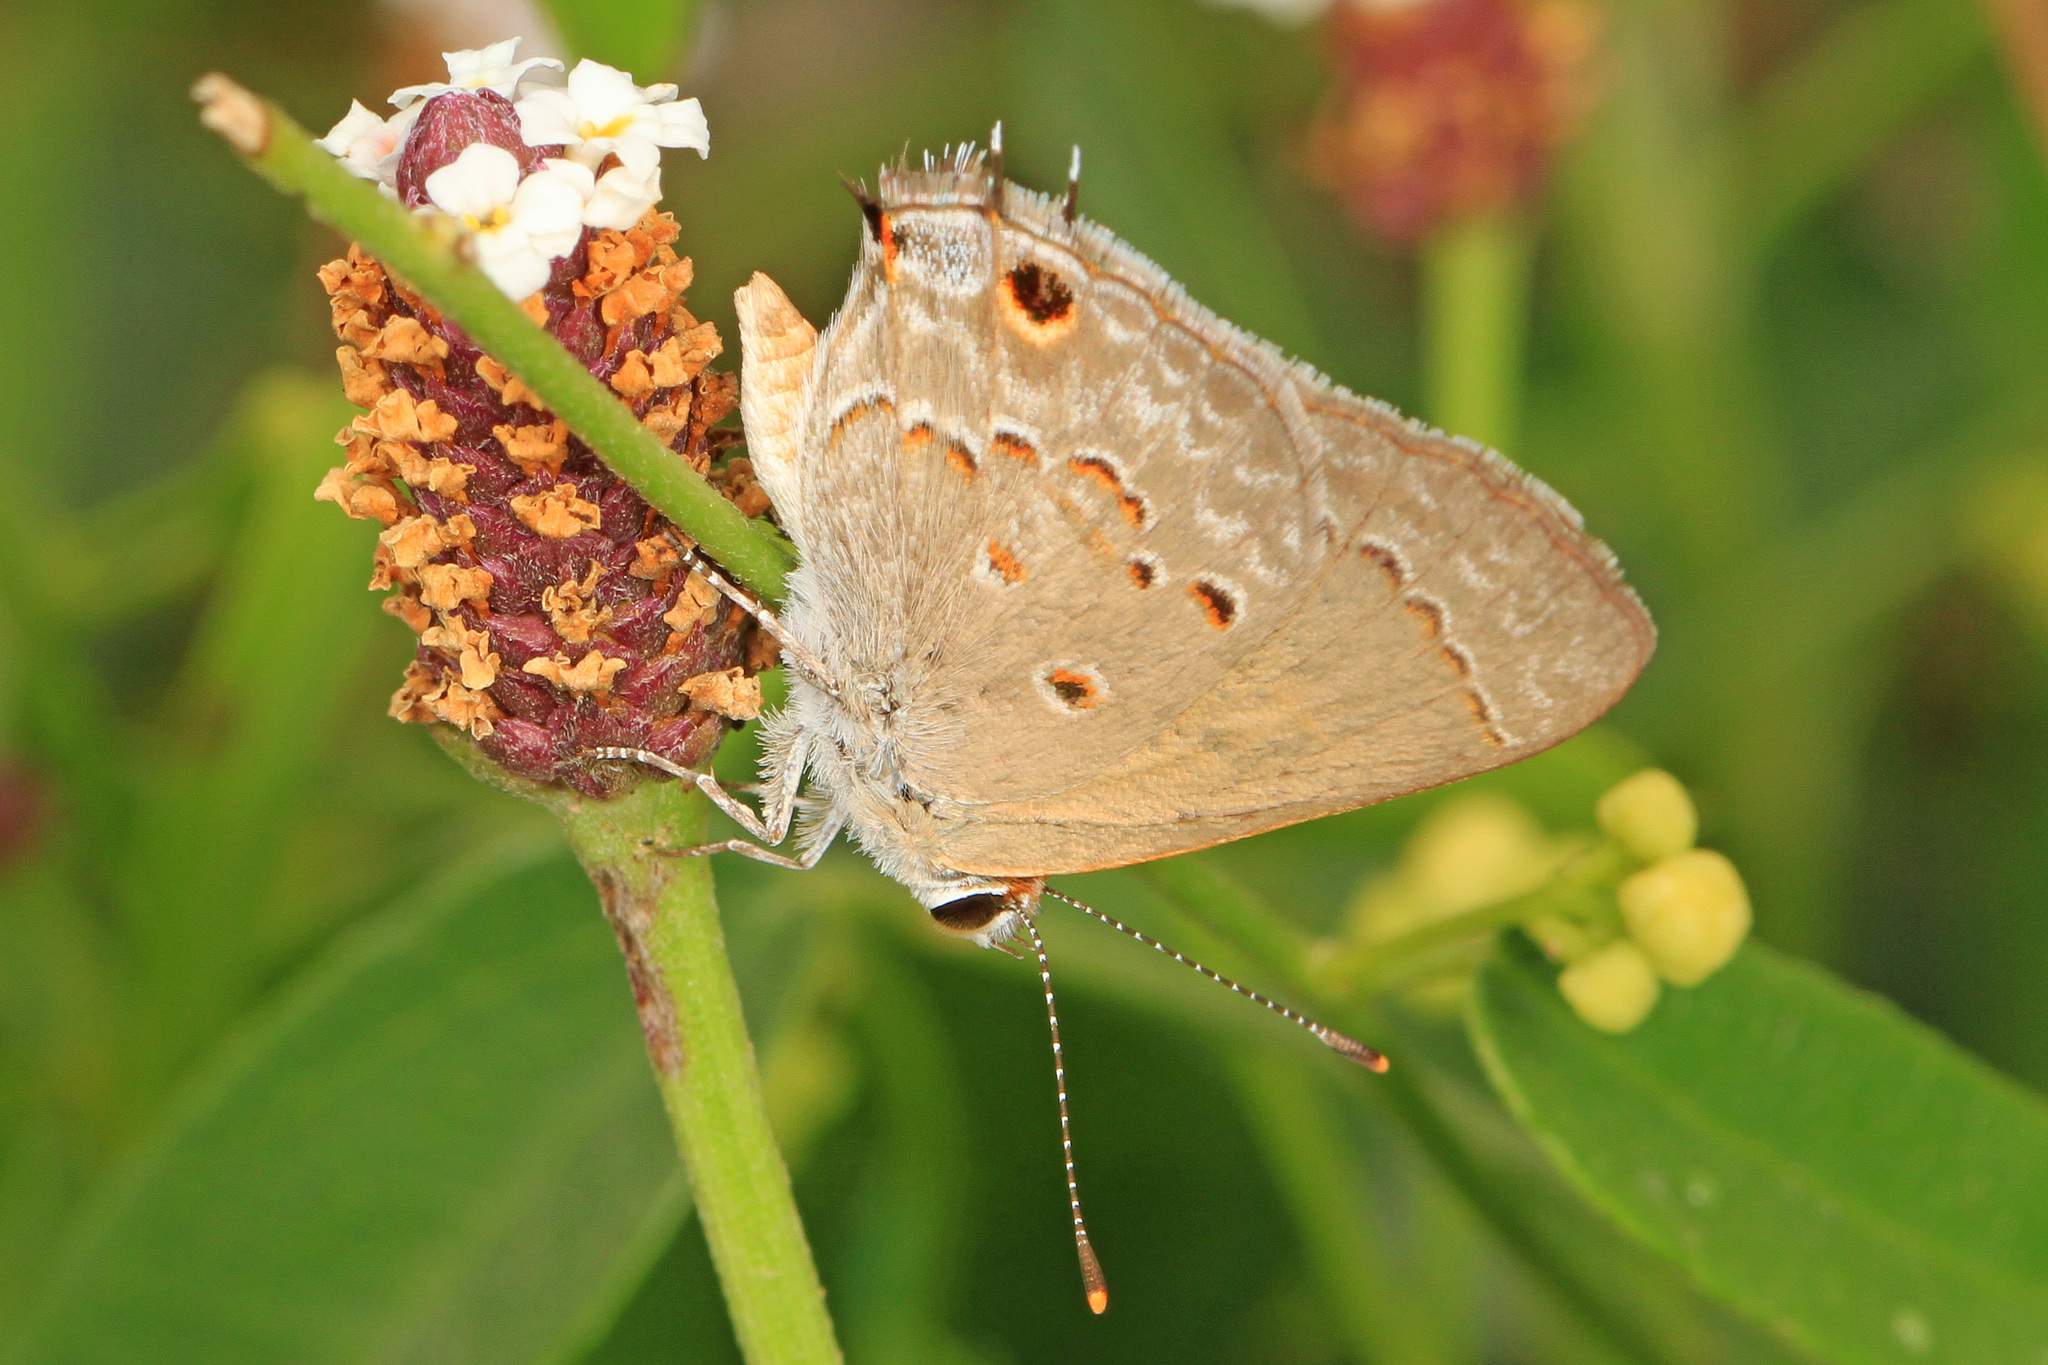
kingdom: Animalia
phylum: Arthropoda
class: Insecta
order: Lepidoptera
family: Lycaenidae
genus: Callicista
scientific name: Callicista columella
